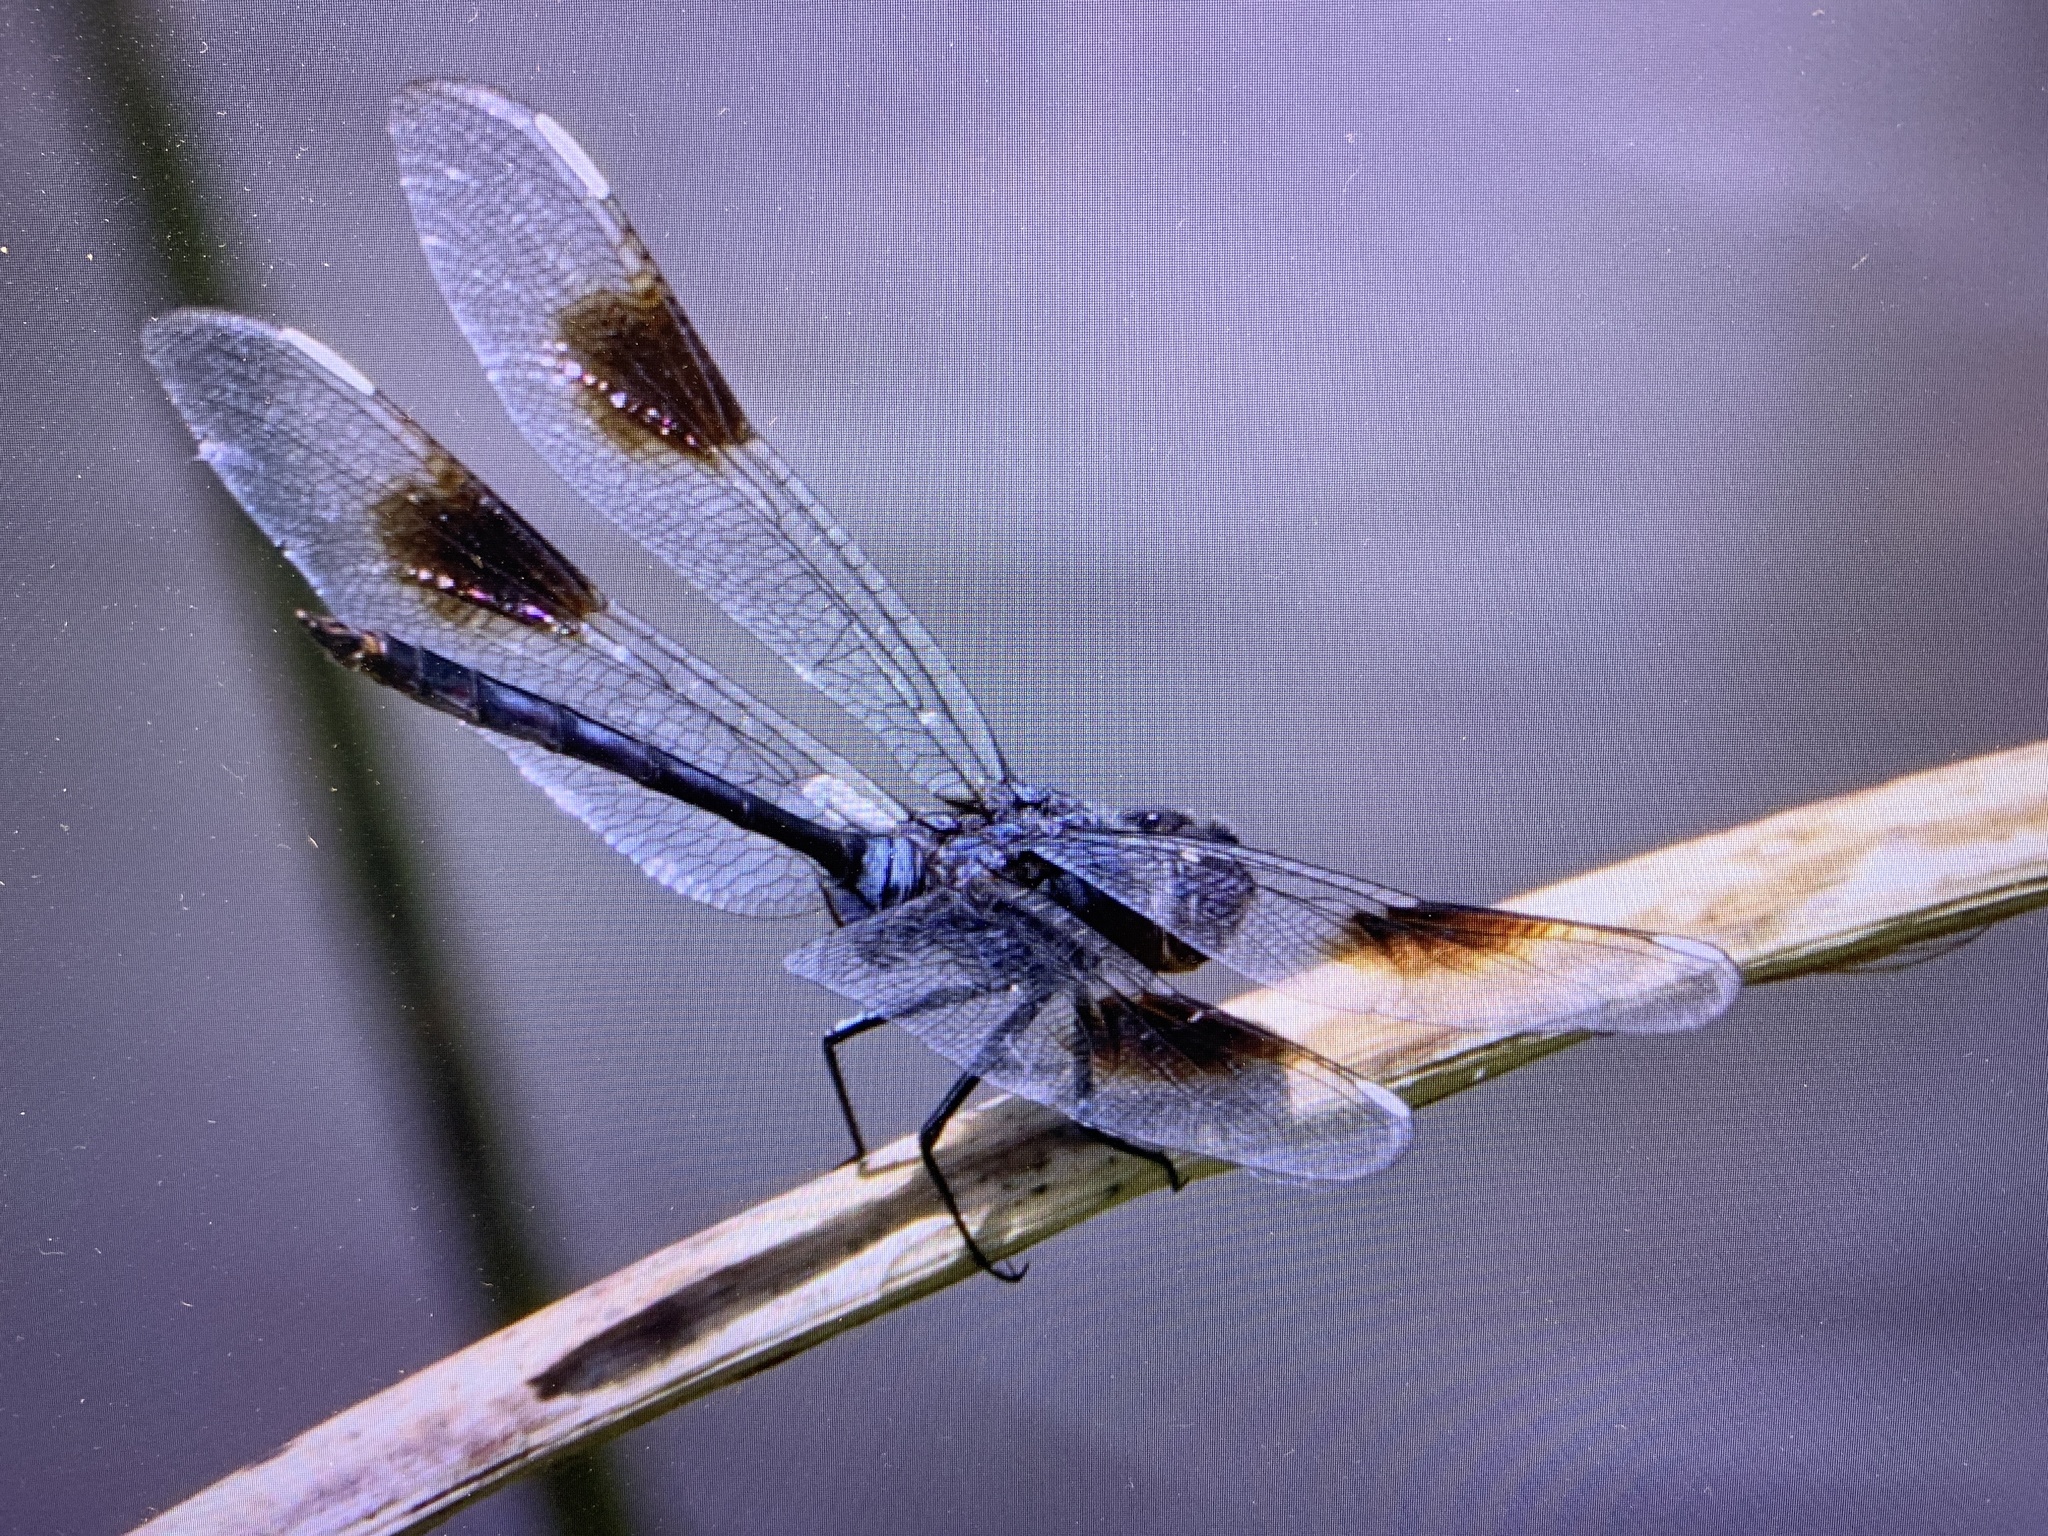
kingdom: Animalia
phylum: Arthropoda
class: Insecta
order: Odonata
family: Libellulidae
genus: Brachymesia
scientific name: Brachymesia gravida
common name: Four-spotted pennant
